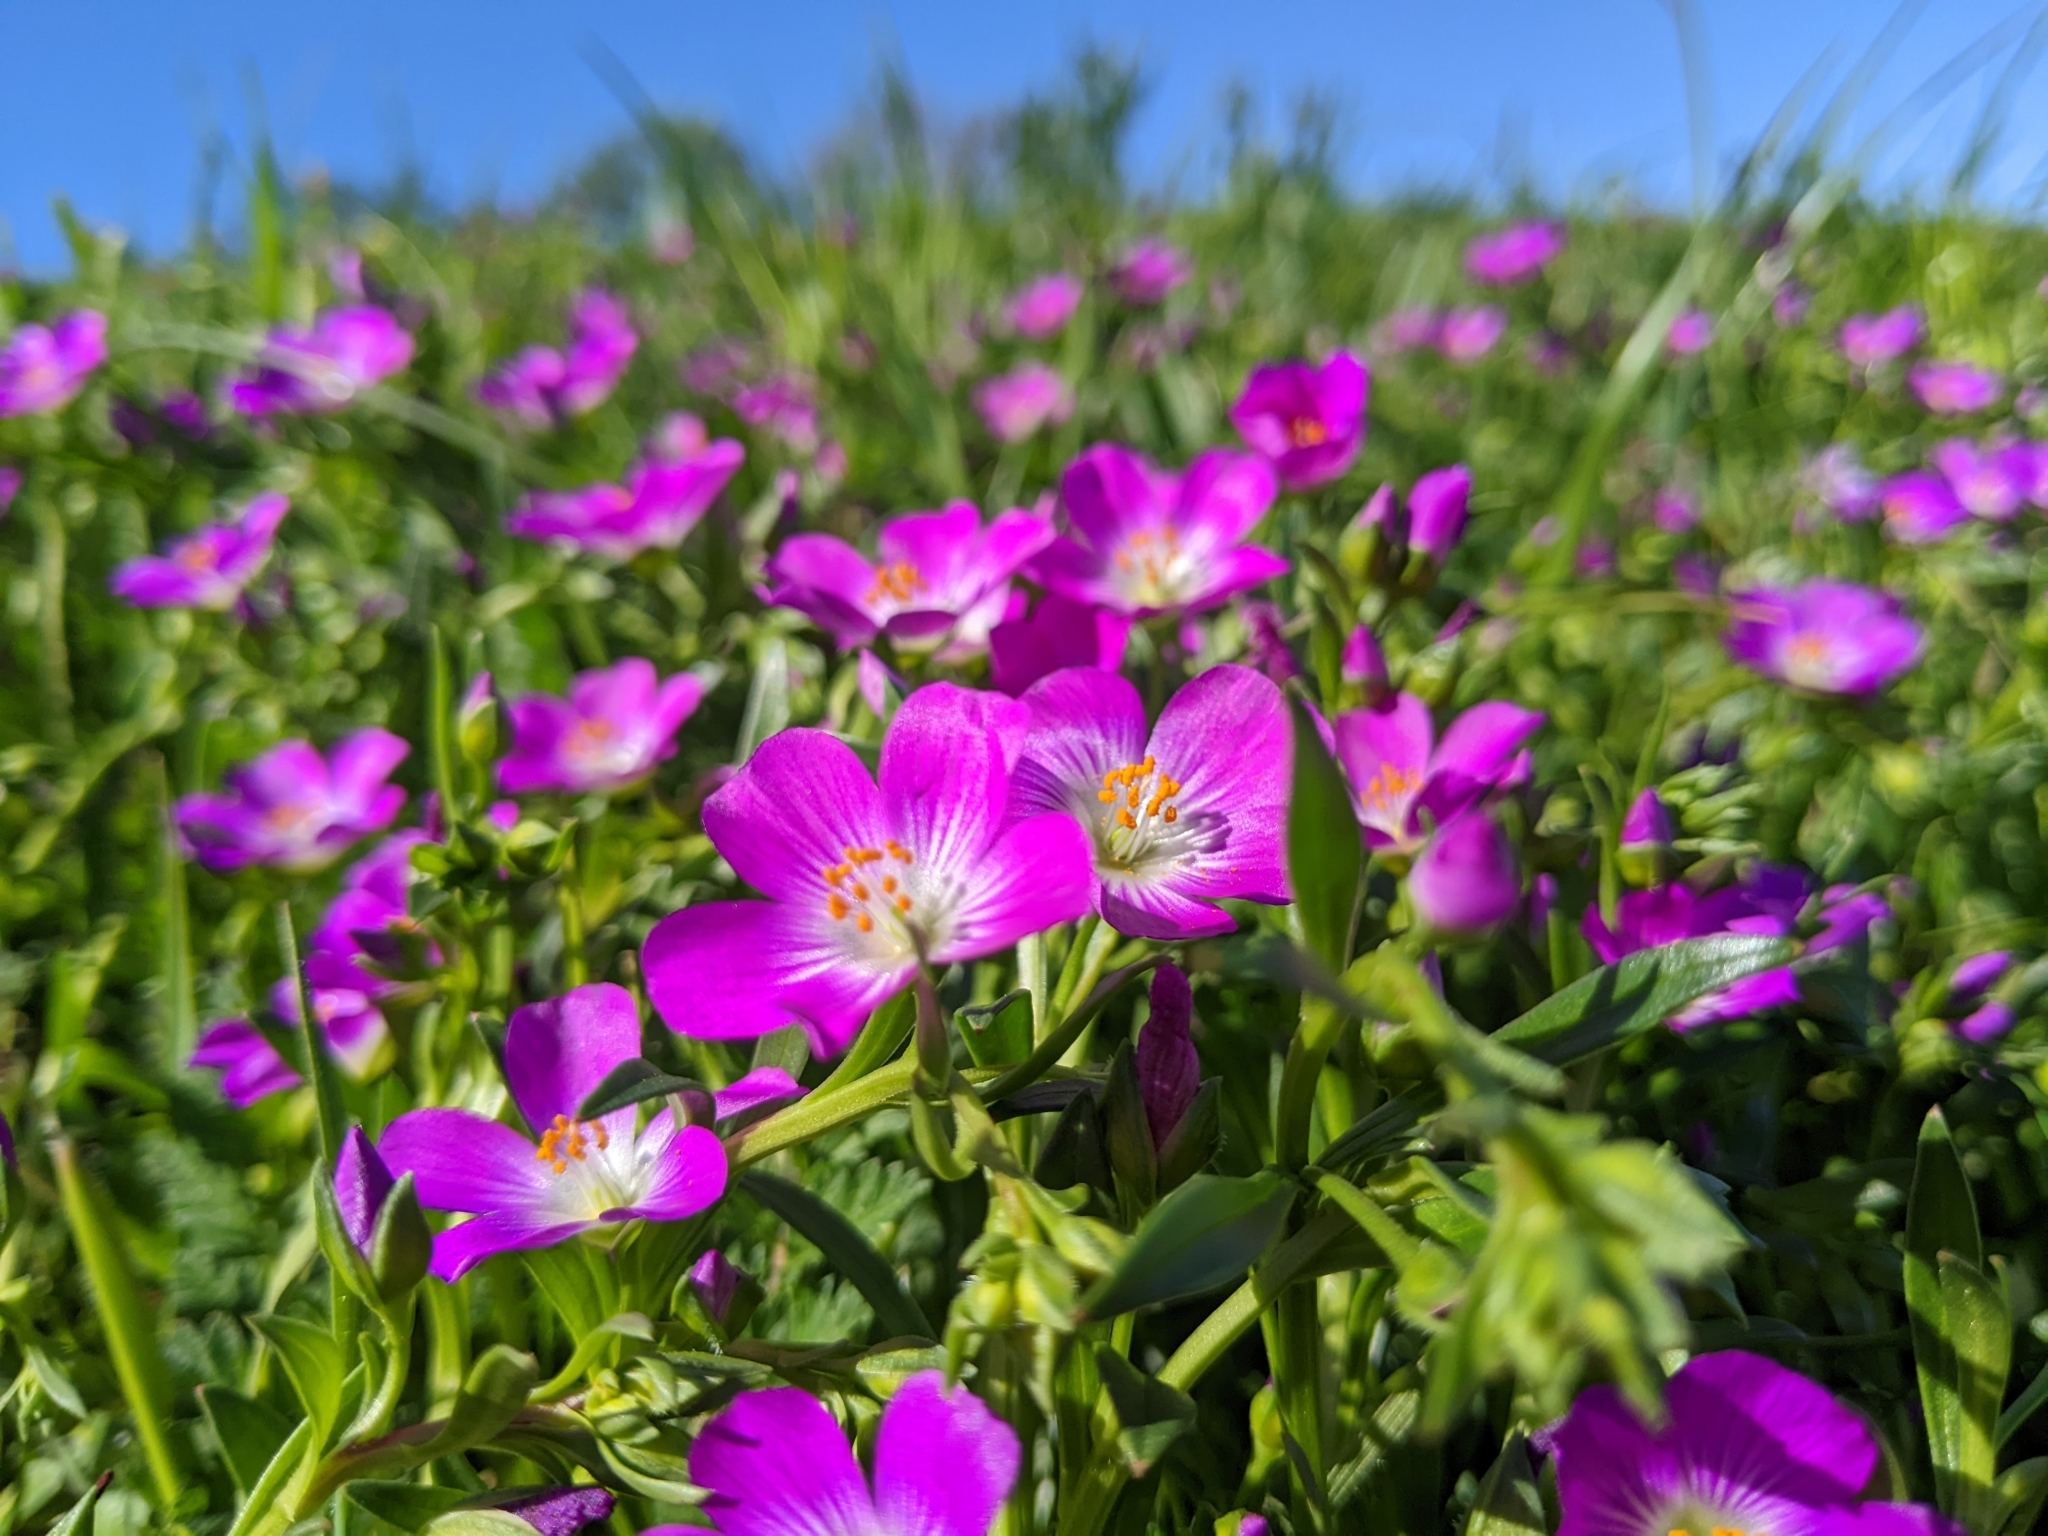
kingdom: Plantae
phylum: Tracheophyta
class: Magnoliopsida
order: Caryophyllales
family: Montiaceae
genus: Calandrinia
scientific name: Calandrinia menziesii
